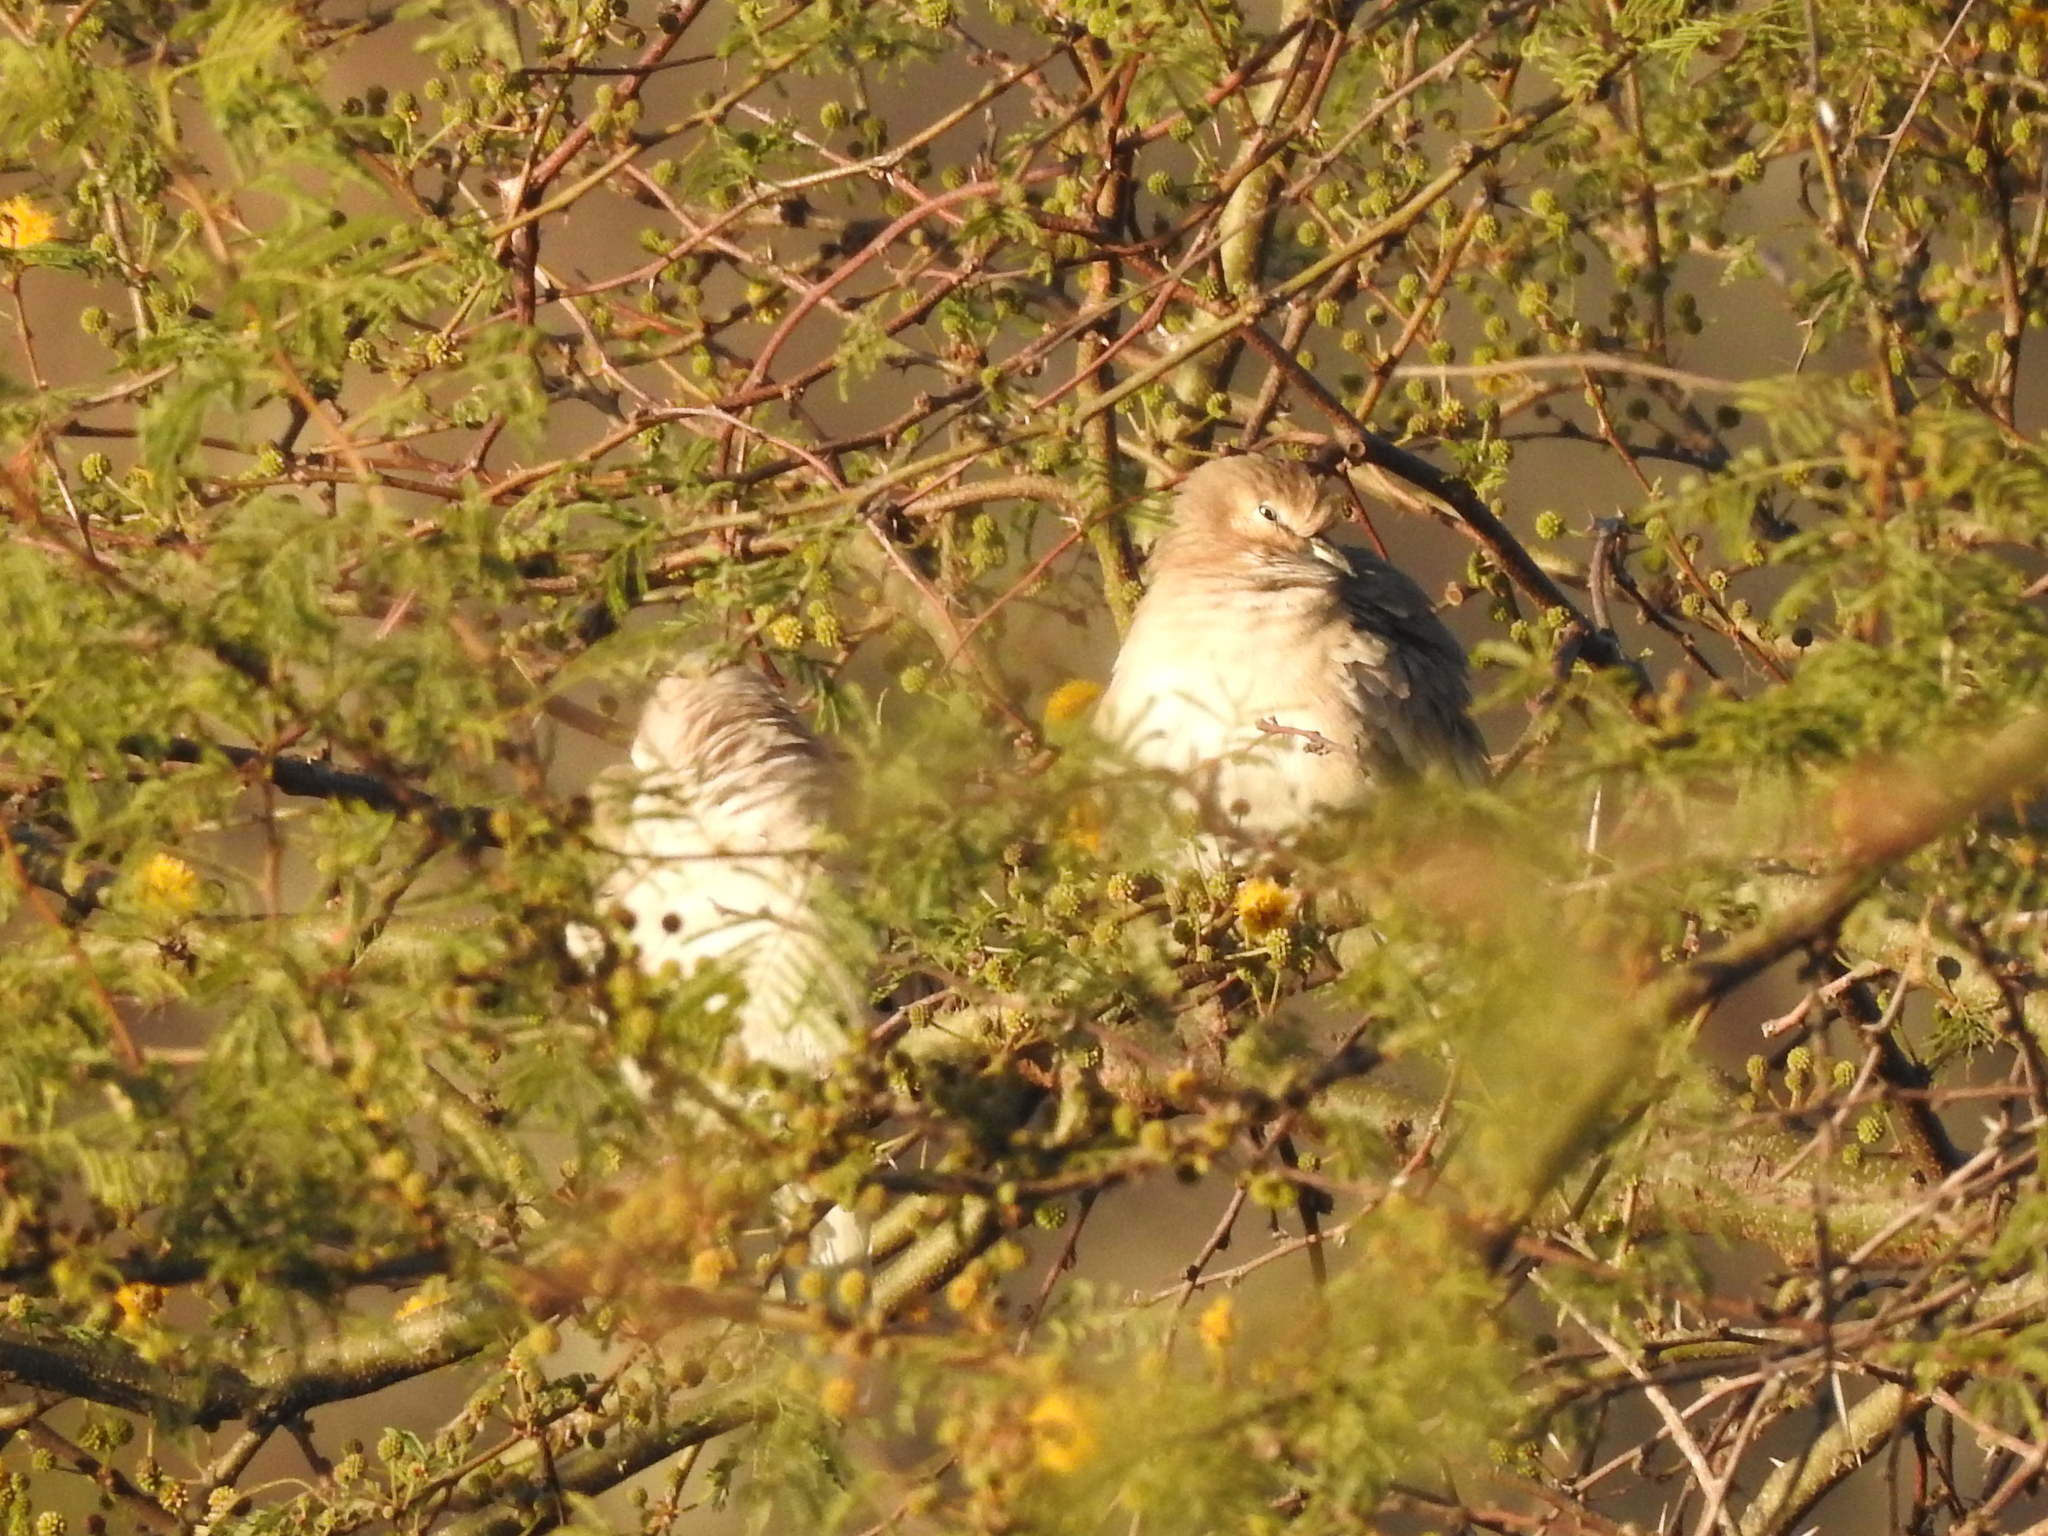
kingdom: Animalia
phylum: Chordata
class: Aves
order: Columbiformes
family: Columbidae
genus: Columbina
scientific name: Columbina picui
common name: Picui ground dove
